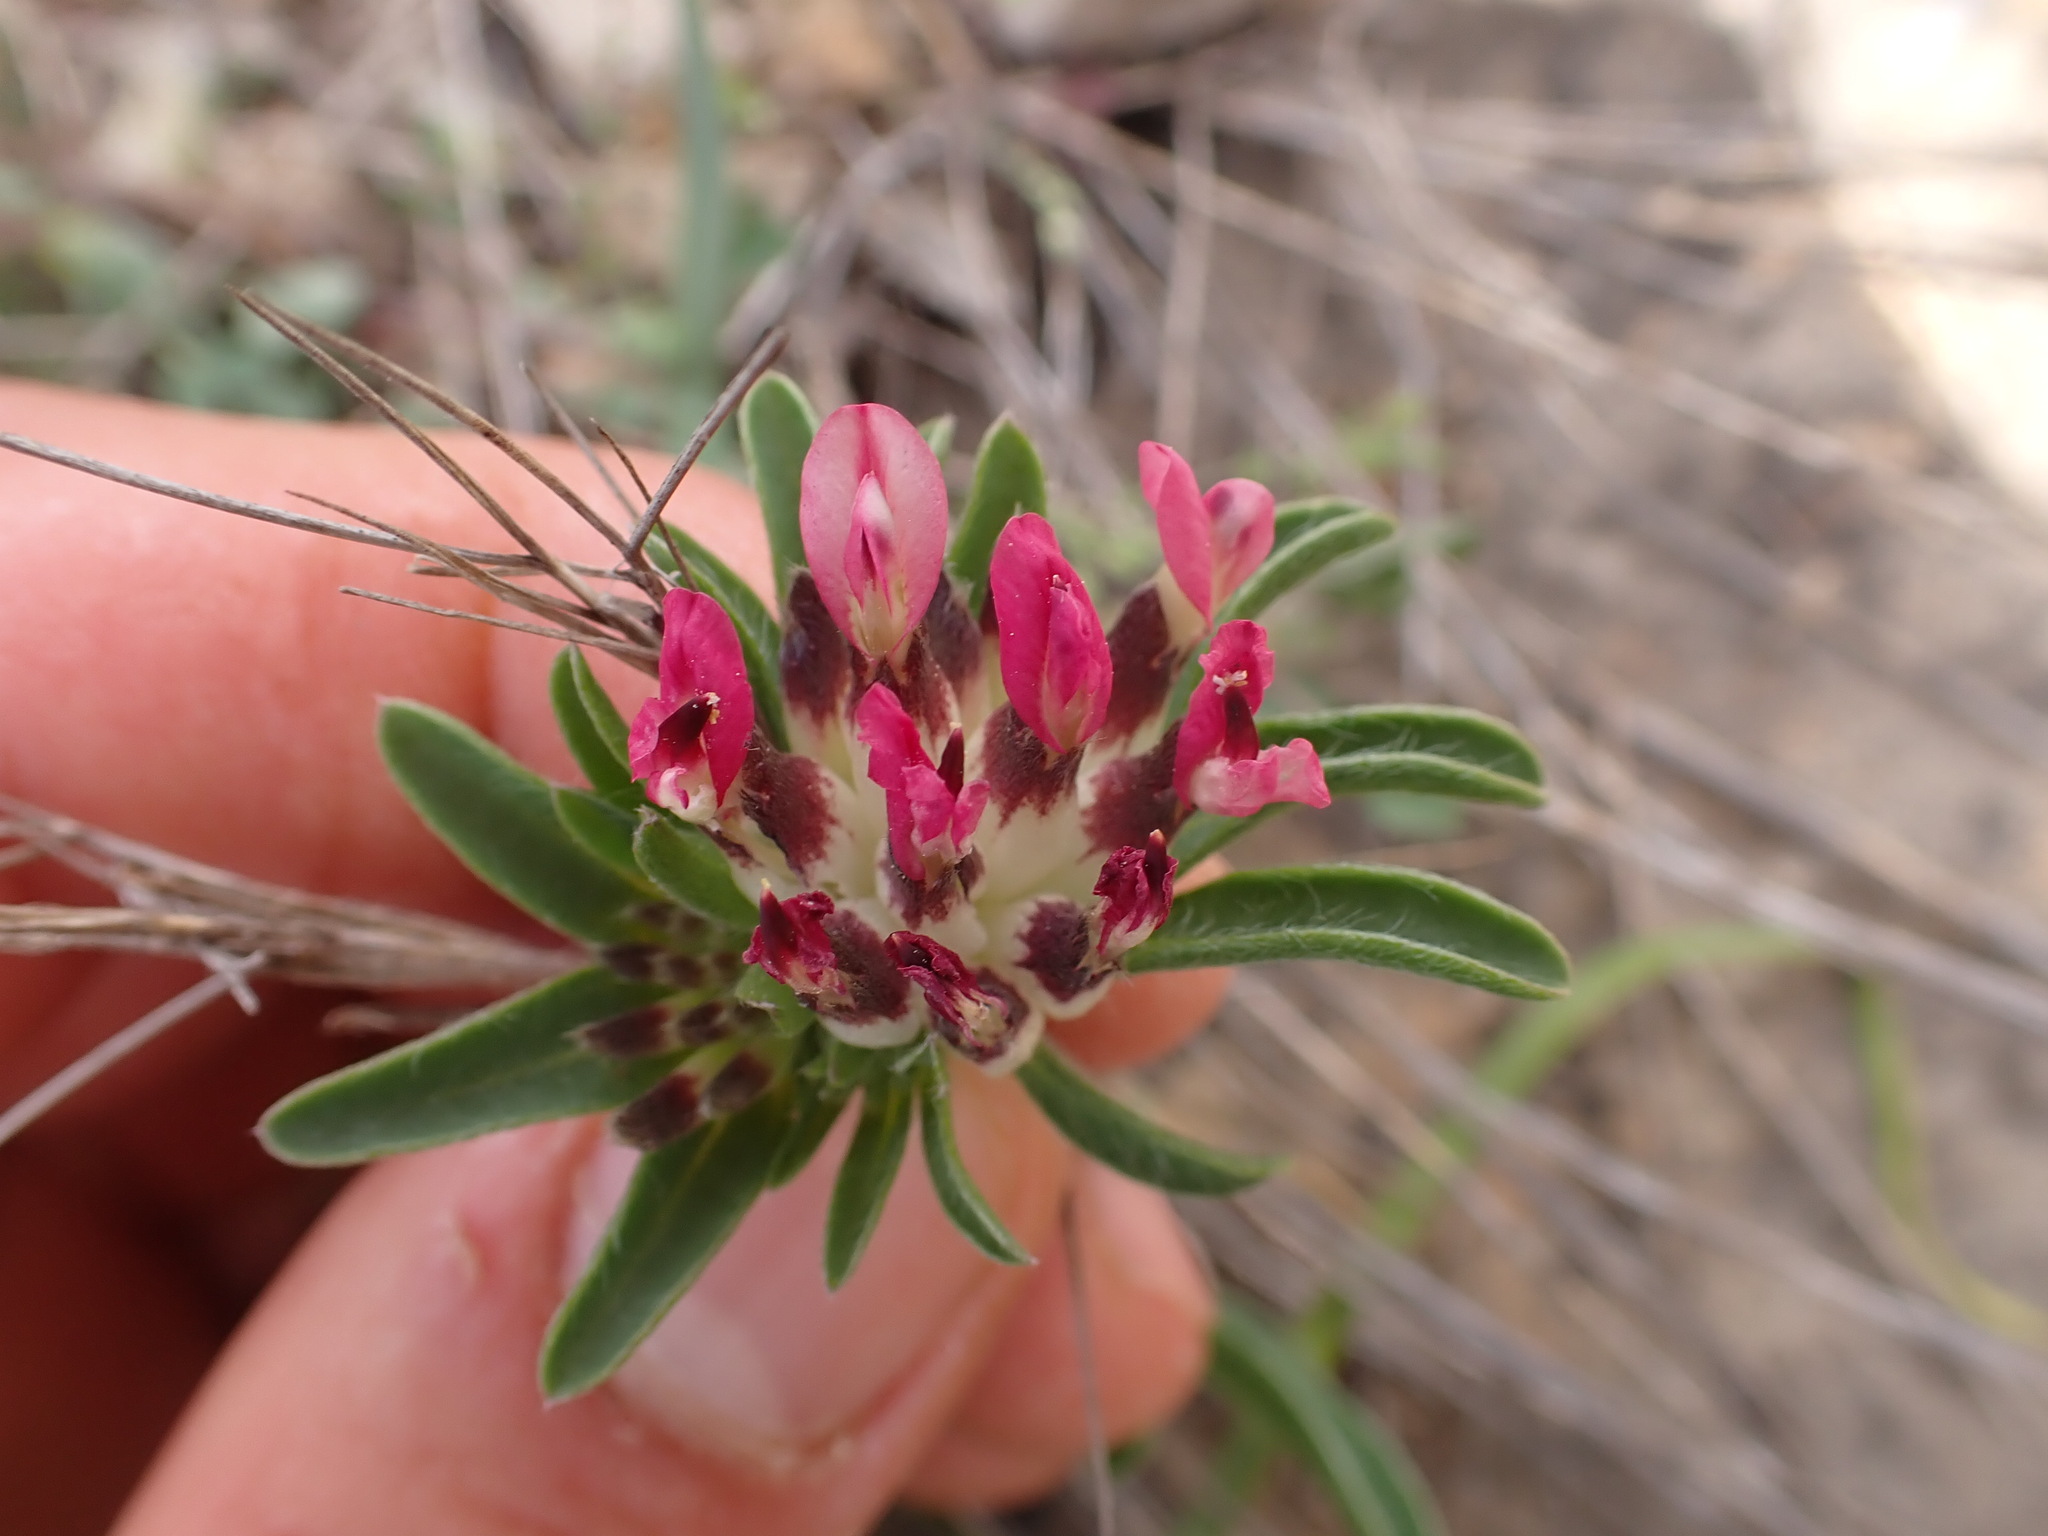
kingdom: Plantae
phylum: Tracheophyta
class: Magnoliopsida
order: Fabales
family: Fabaceae
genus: Anthyllis
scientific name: Anthyllis vulneraria
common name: Kidney vetch
